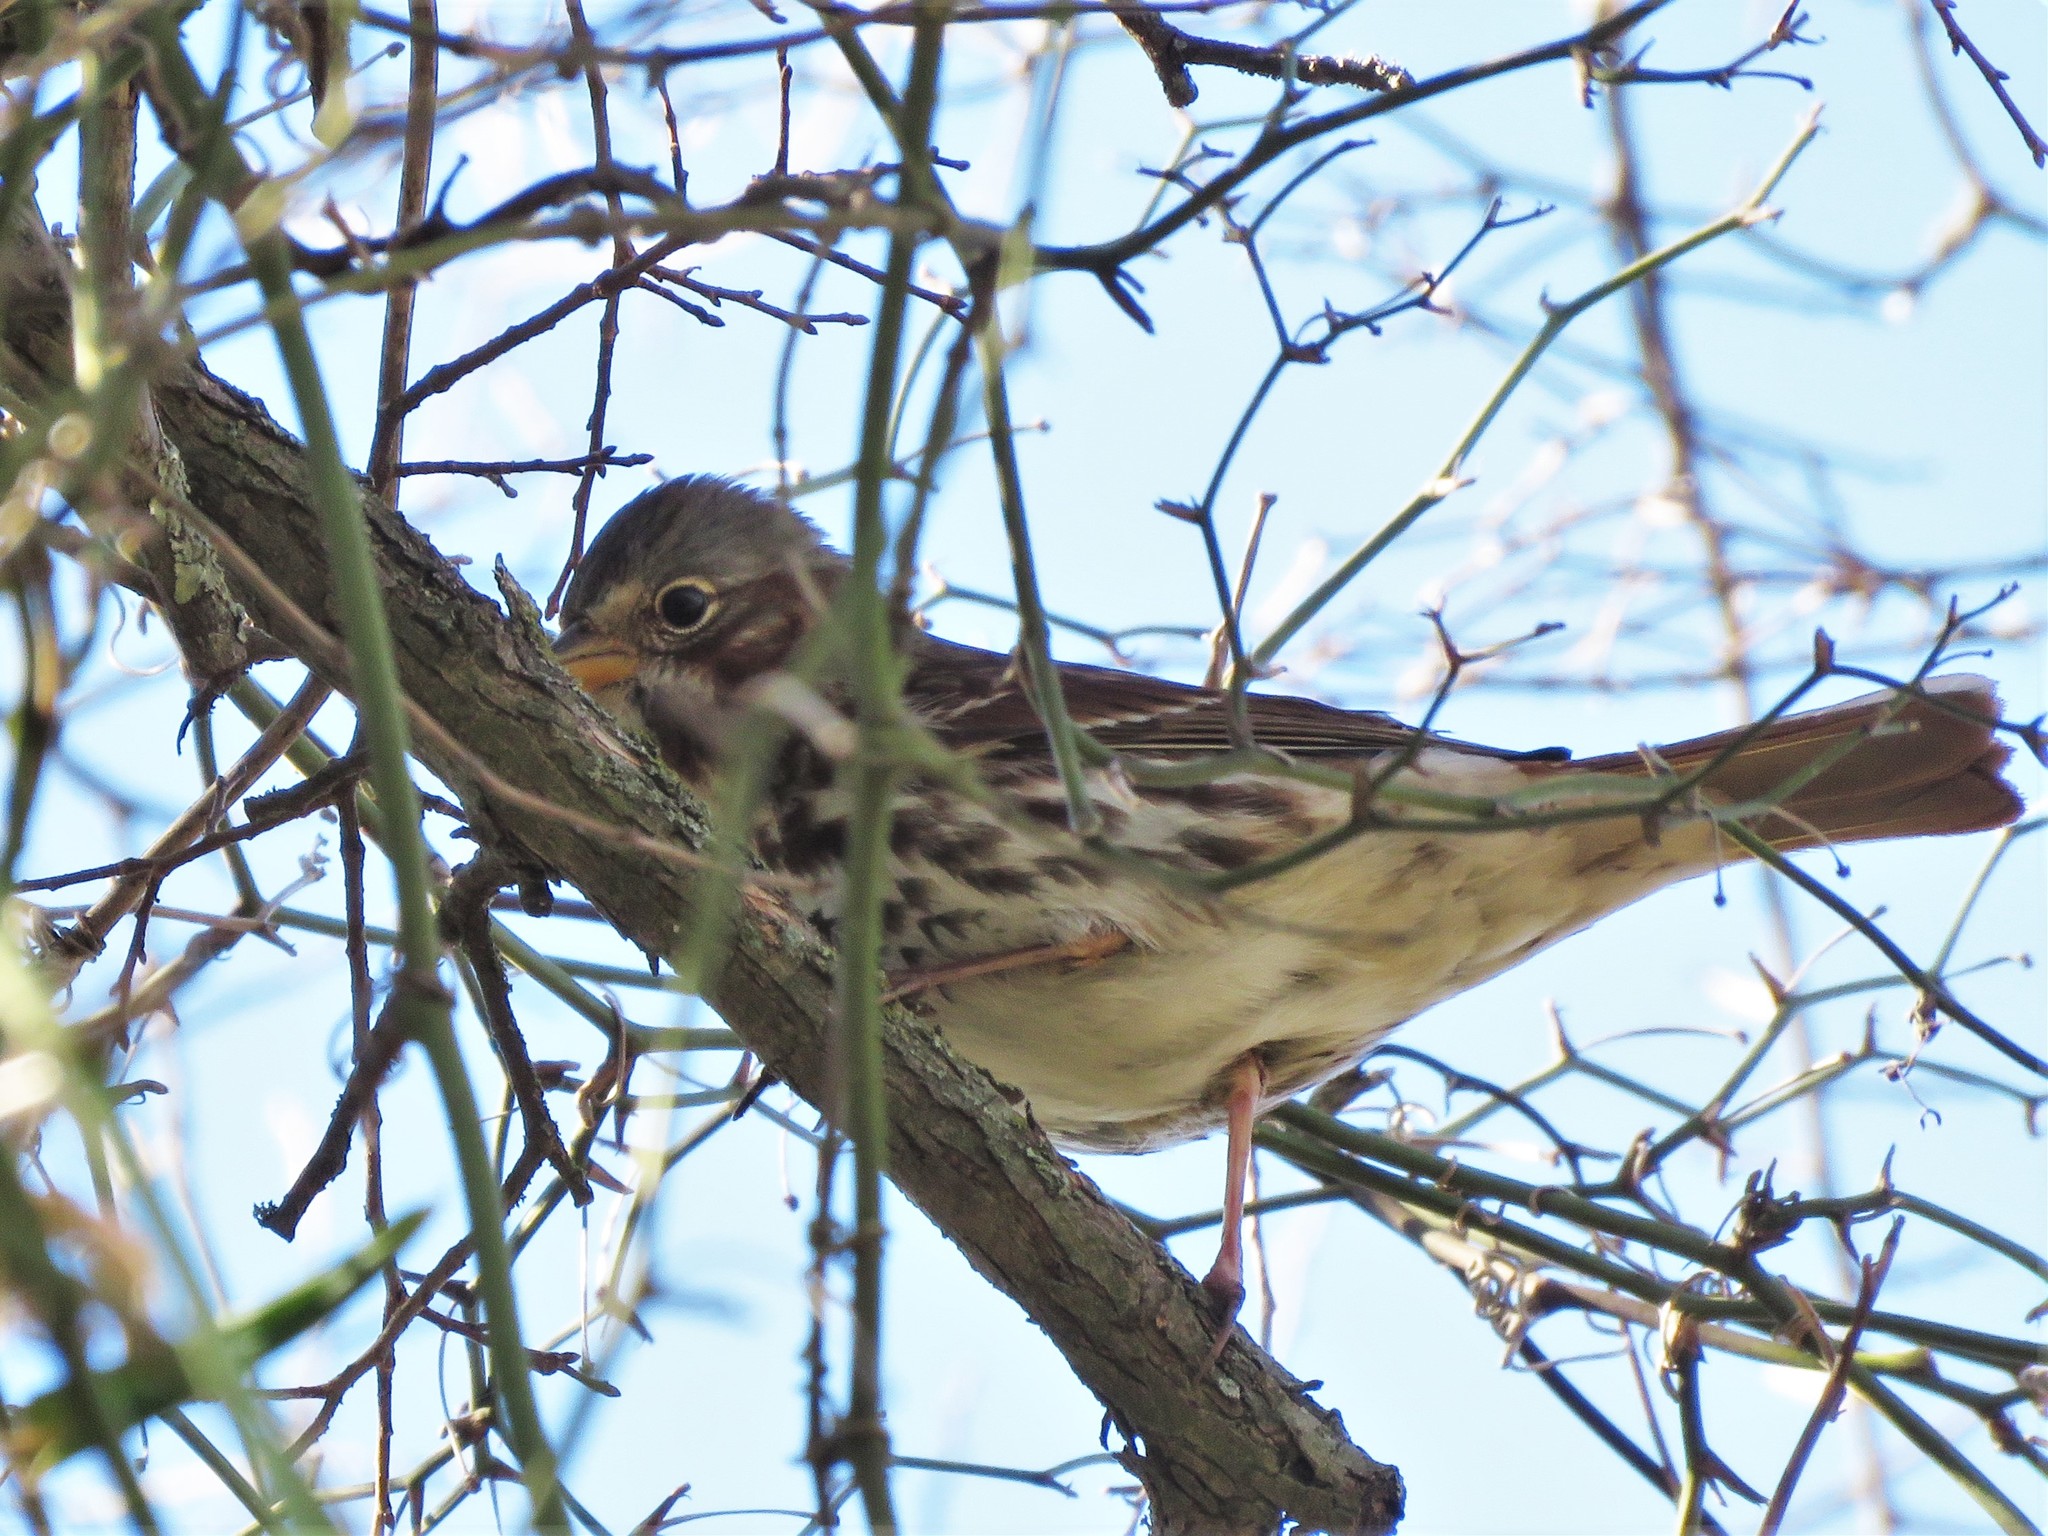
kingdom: Animalia
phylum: Chordata
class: Aves
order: Passeriformes
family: Passerellidae
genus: Passerella
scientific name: Passerella iliaca
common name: Fox sparrow
